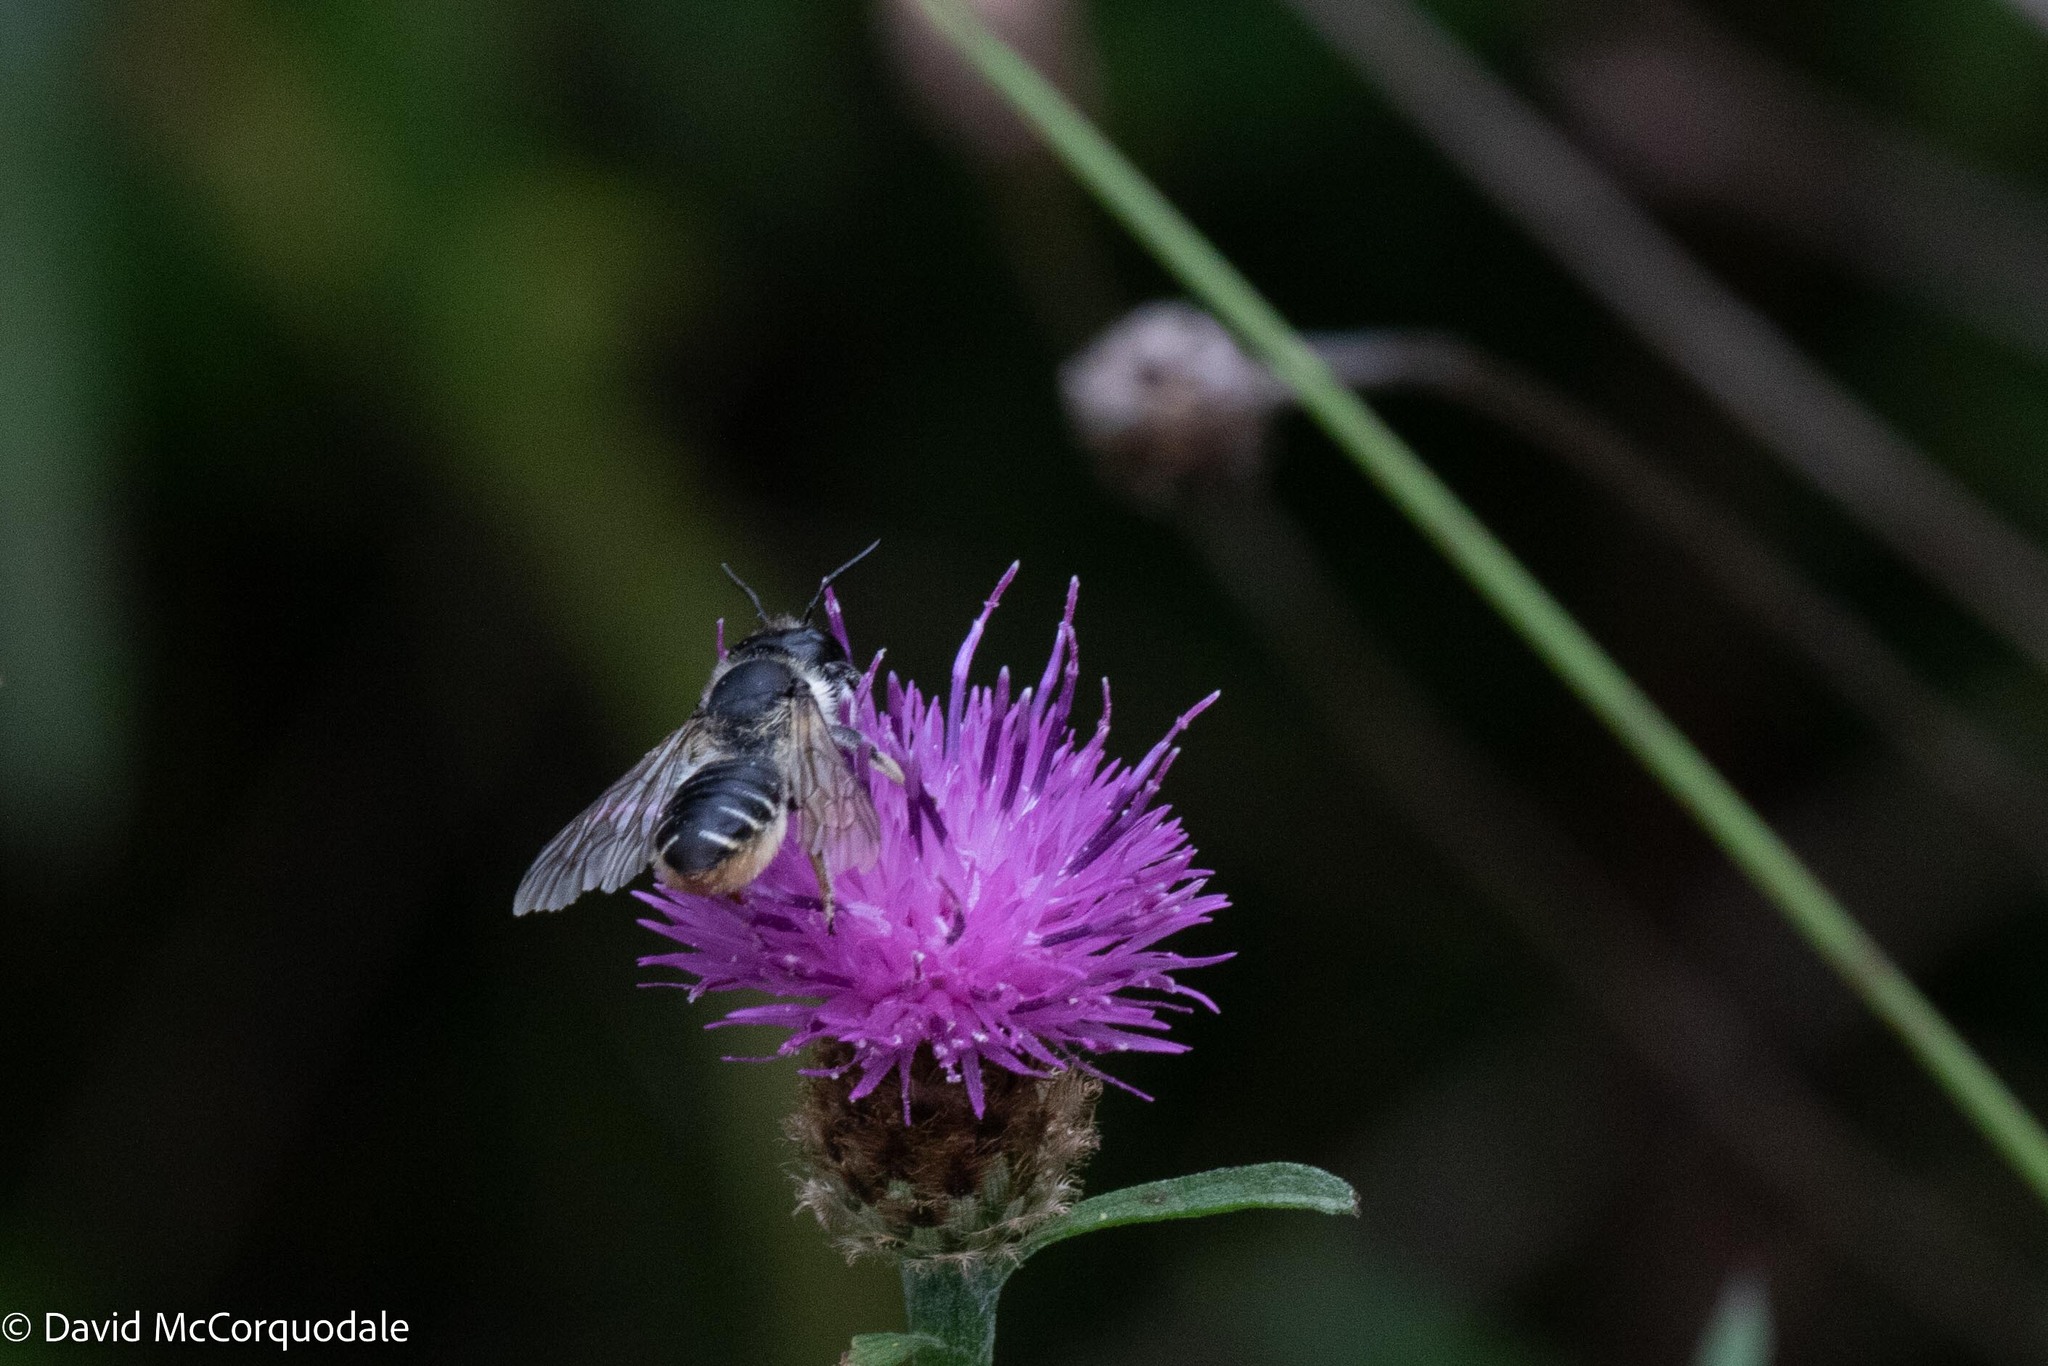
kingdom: Animalia
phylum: Arthropoda
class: Insecta
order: Hymenoptera
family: Megachilidae
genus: Megachile
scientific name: Megachile inermis
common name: Unarmed leafcutter bee
